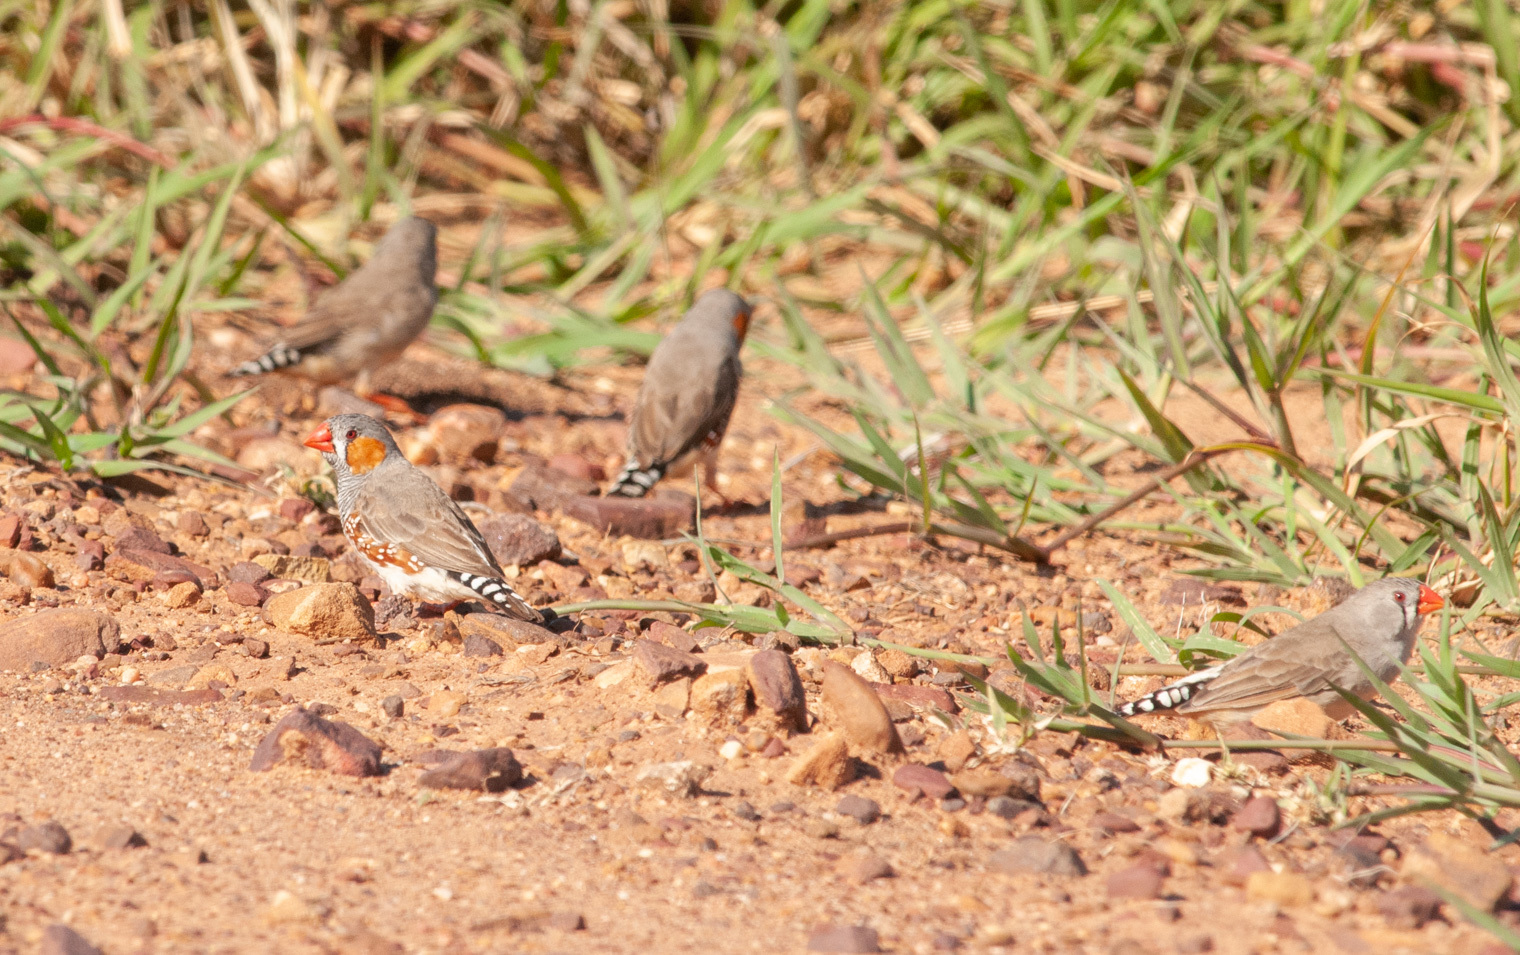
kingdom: Animalia
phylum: Chordata
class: Aves
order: Passeriformes
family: Estrildidae
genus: Taeniopygia
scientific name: Taeniopygia guttata
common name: Zebra finch
